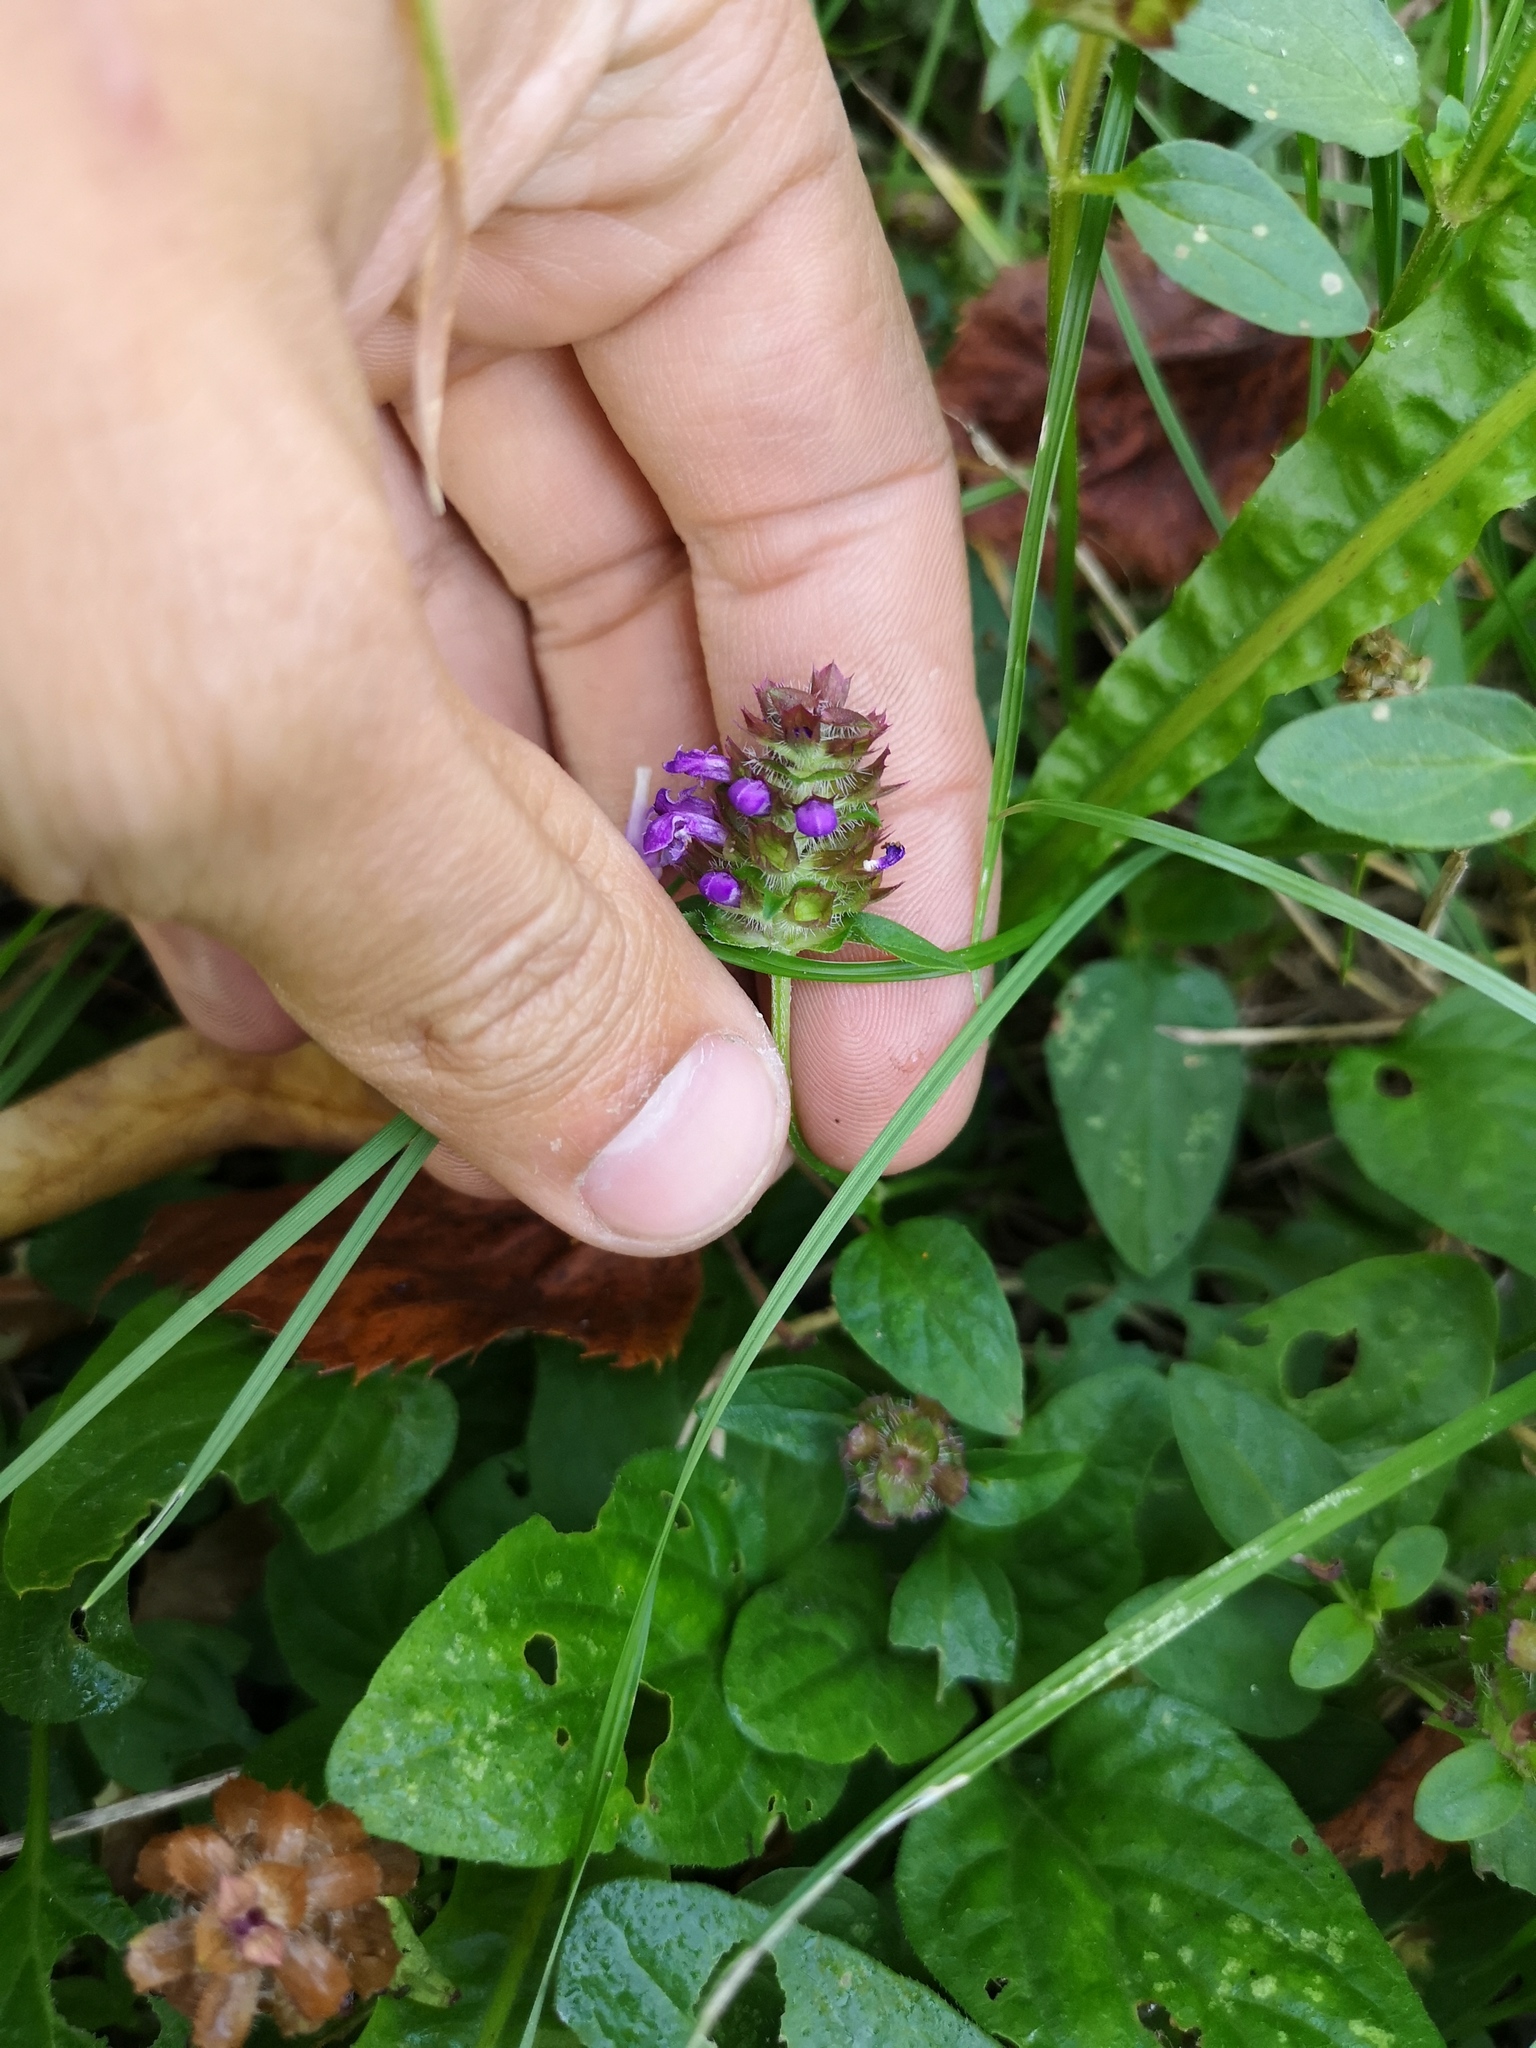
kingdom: Plantae
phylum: Tracheophyta
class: Magnoliopsida
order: Lamiales
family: Lamiaceae
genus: Prunella
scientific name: Prunella vulgaris
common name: Heal-all
